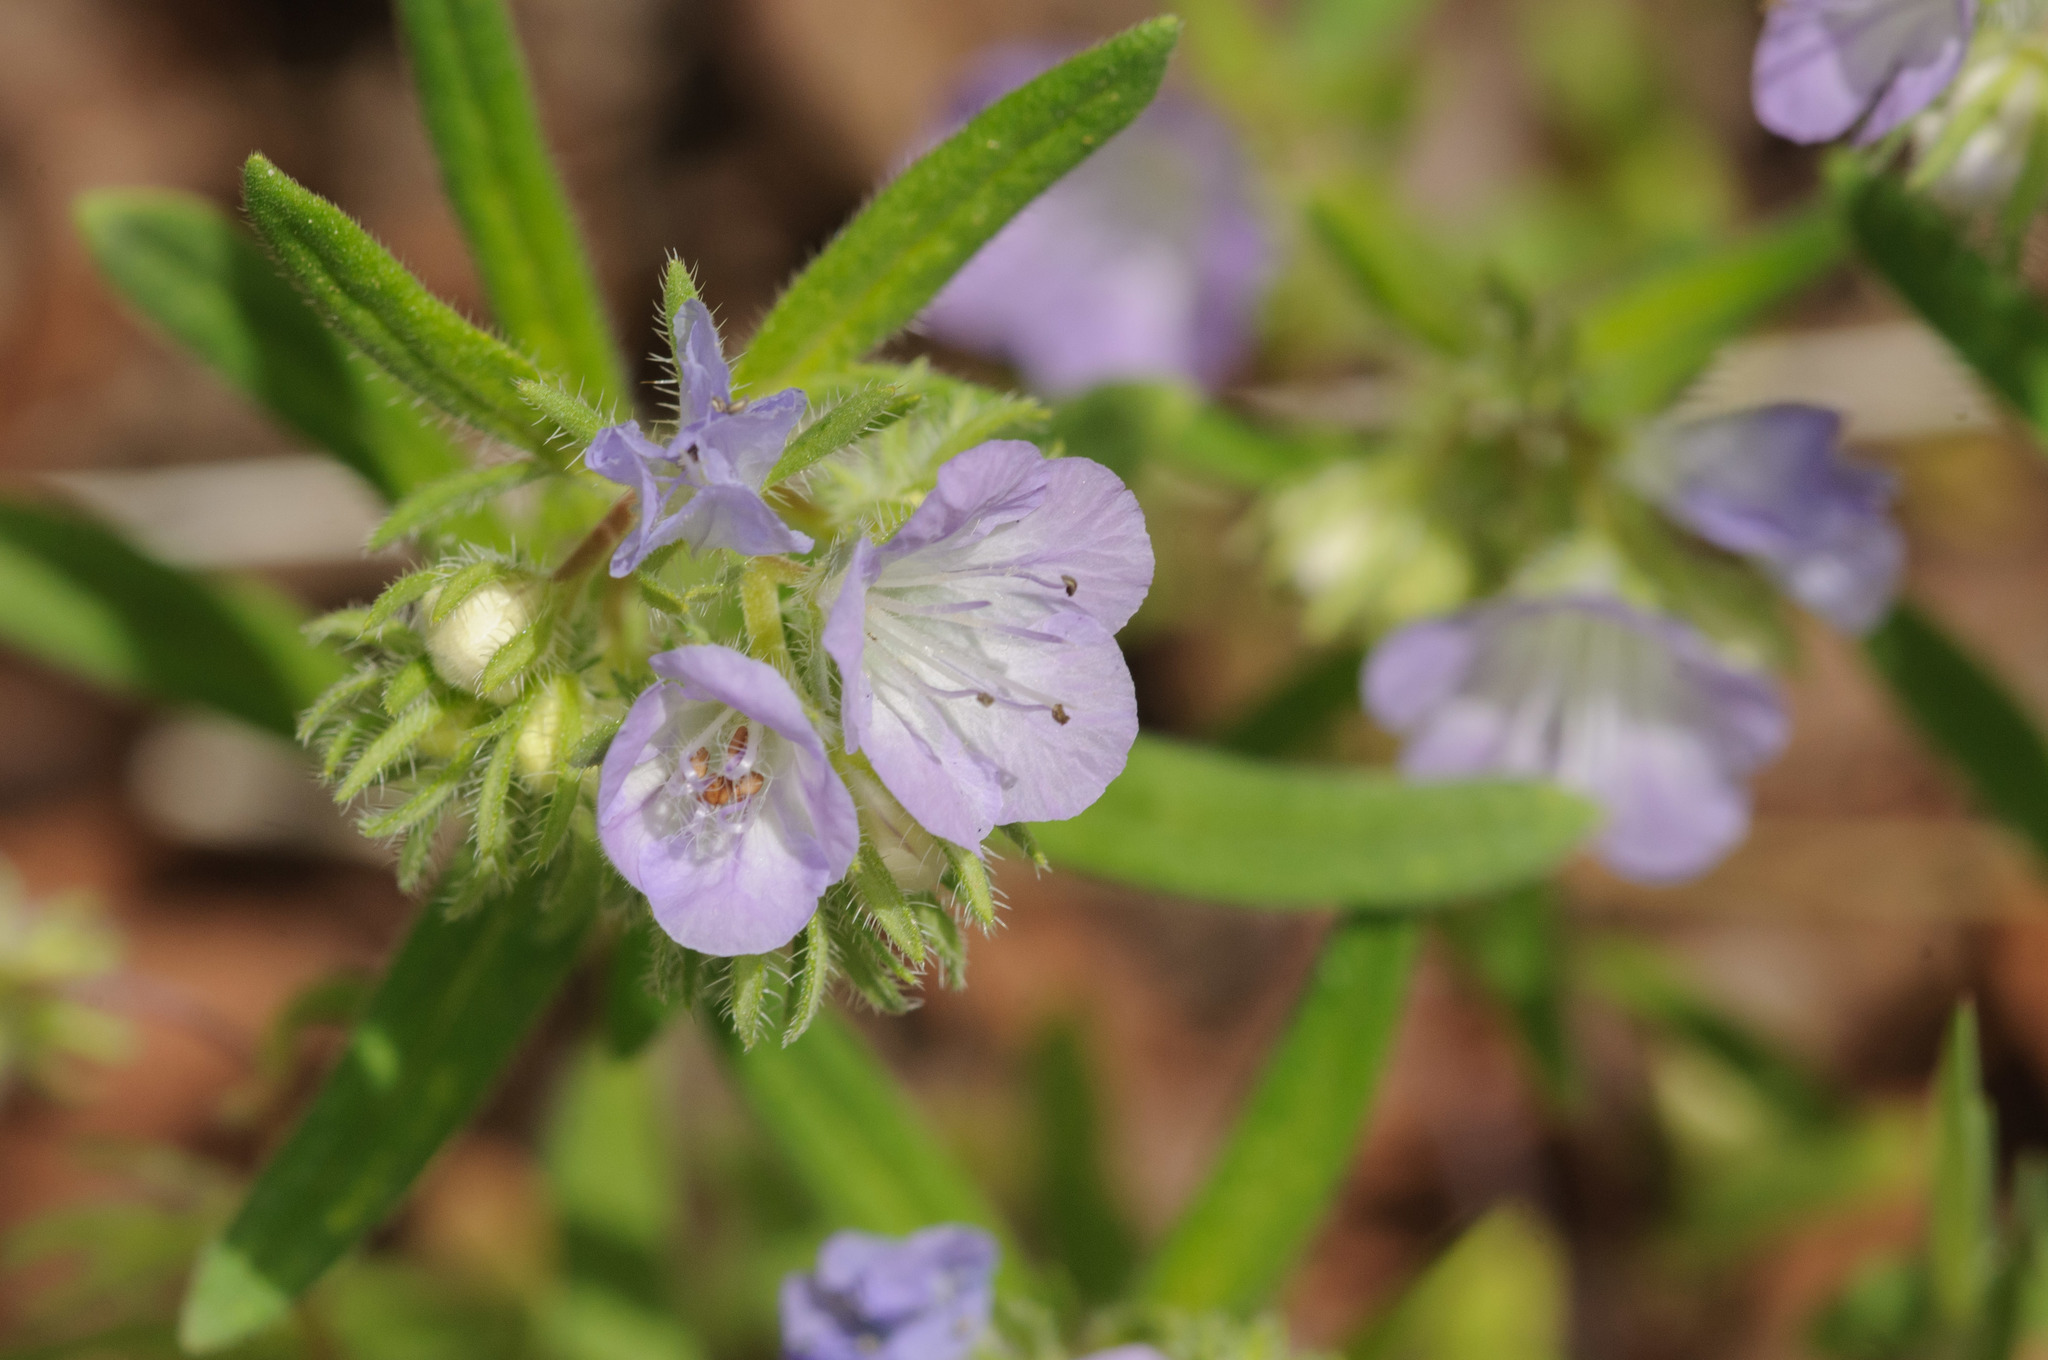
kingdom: Plantae
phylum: Tracheophyta
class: Magnoliopsida
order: Boraginales
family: Hydrophyllaceae
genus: Phacelia
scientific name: Phacelia linearis
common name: Linear-leaved phacelia
